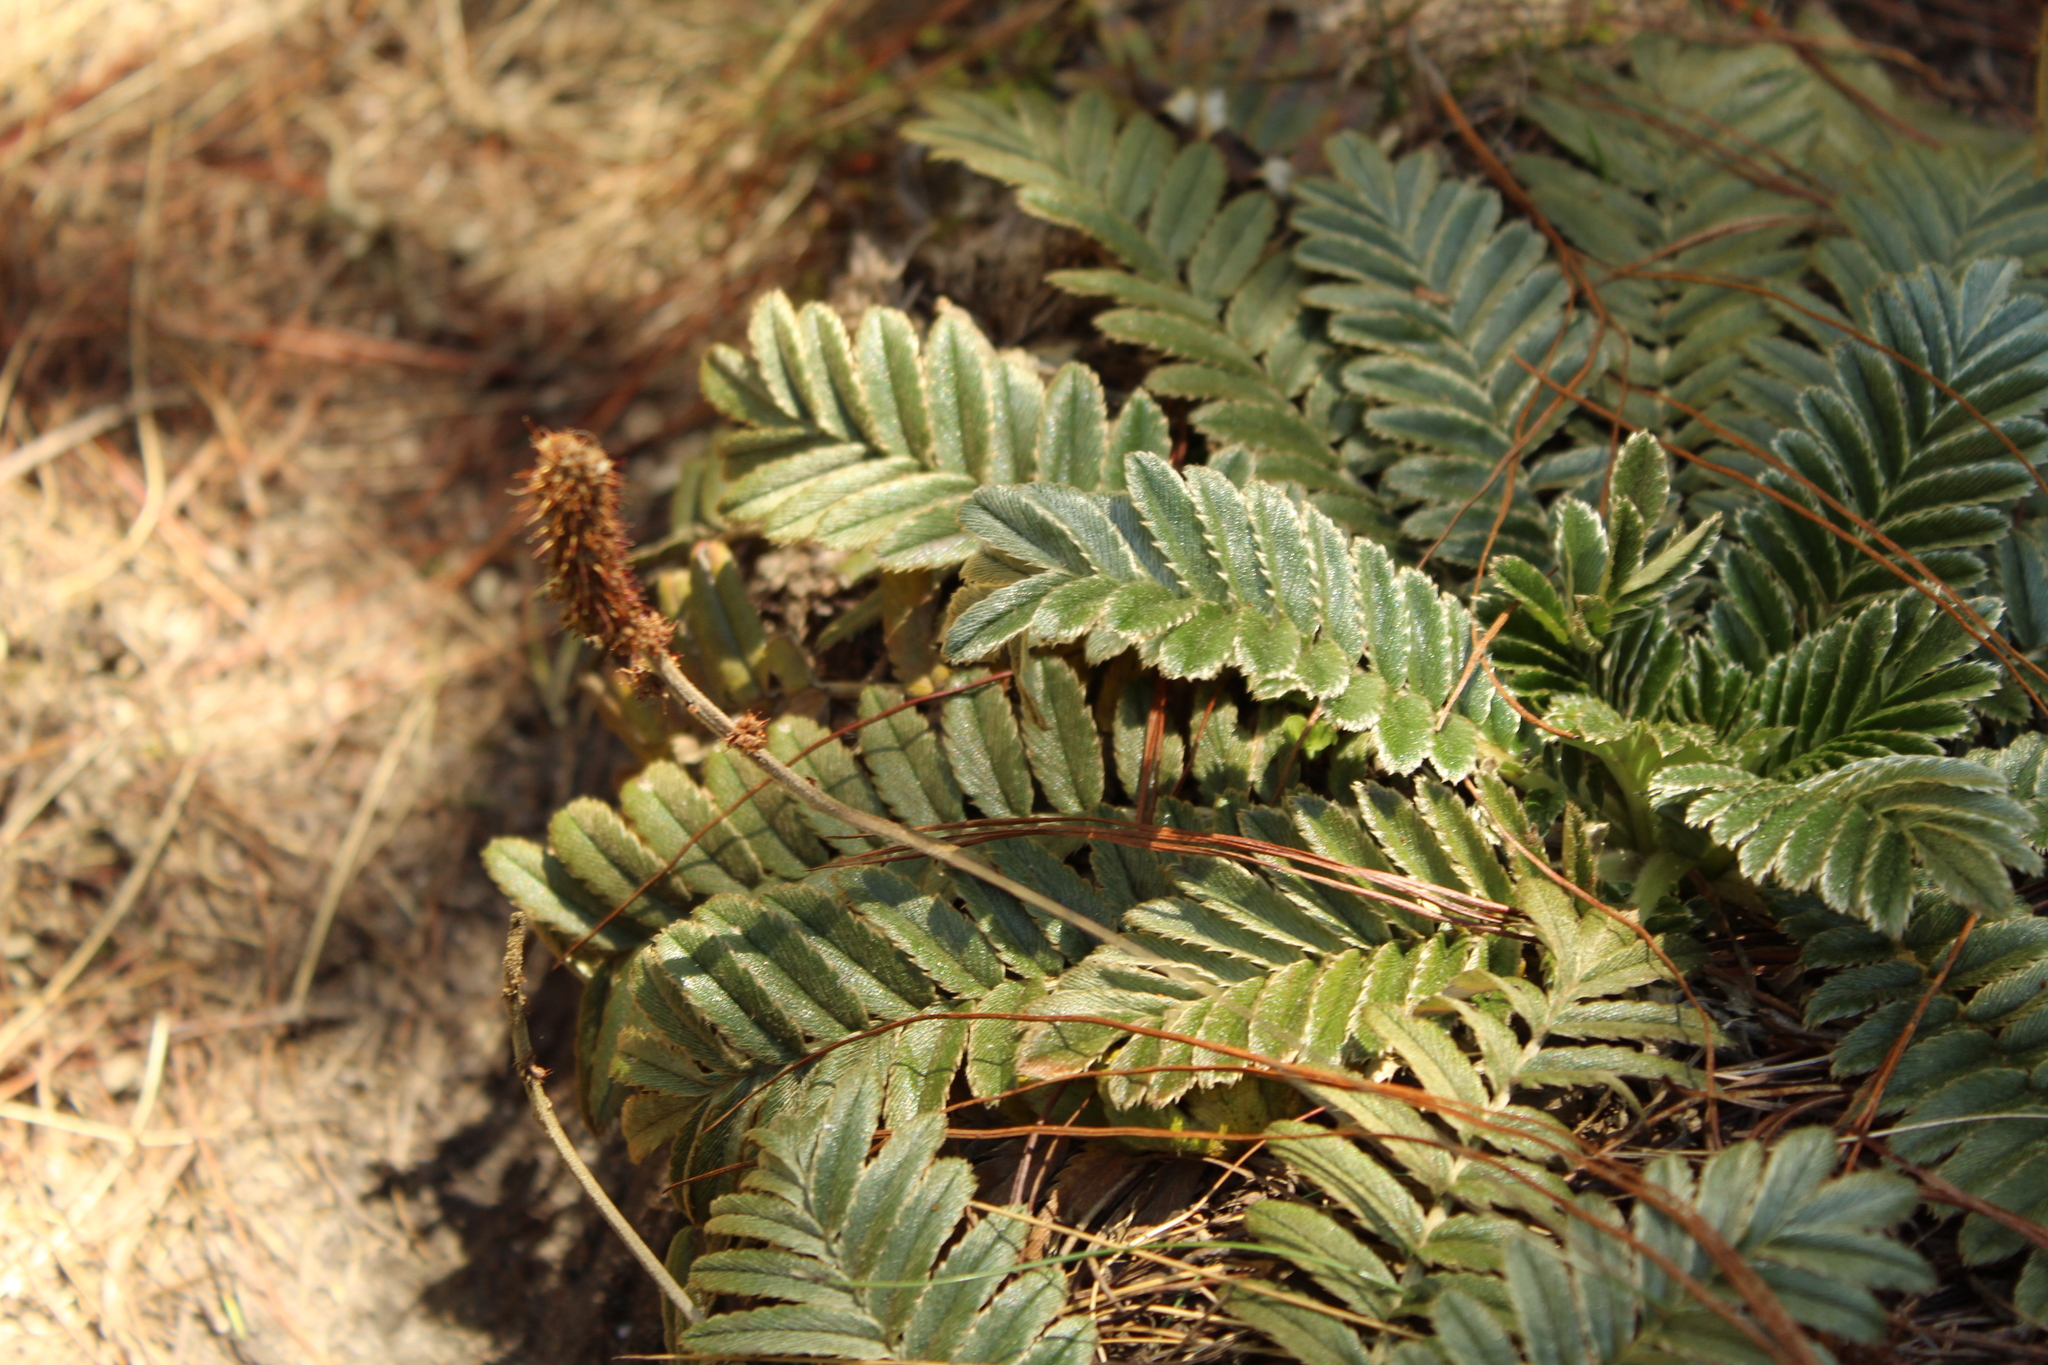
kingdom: Plantae
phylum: Tracheophyta
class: Magnoliopsida
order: Rosales
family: Rosaceae
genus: Acaena
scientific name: Acaena cylindristachya
